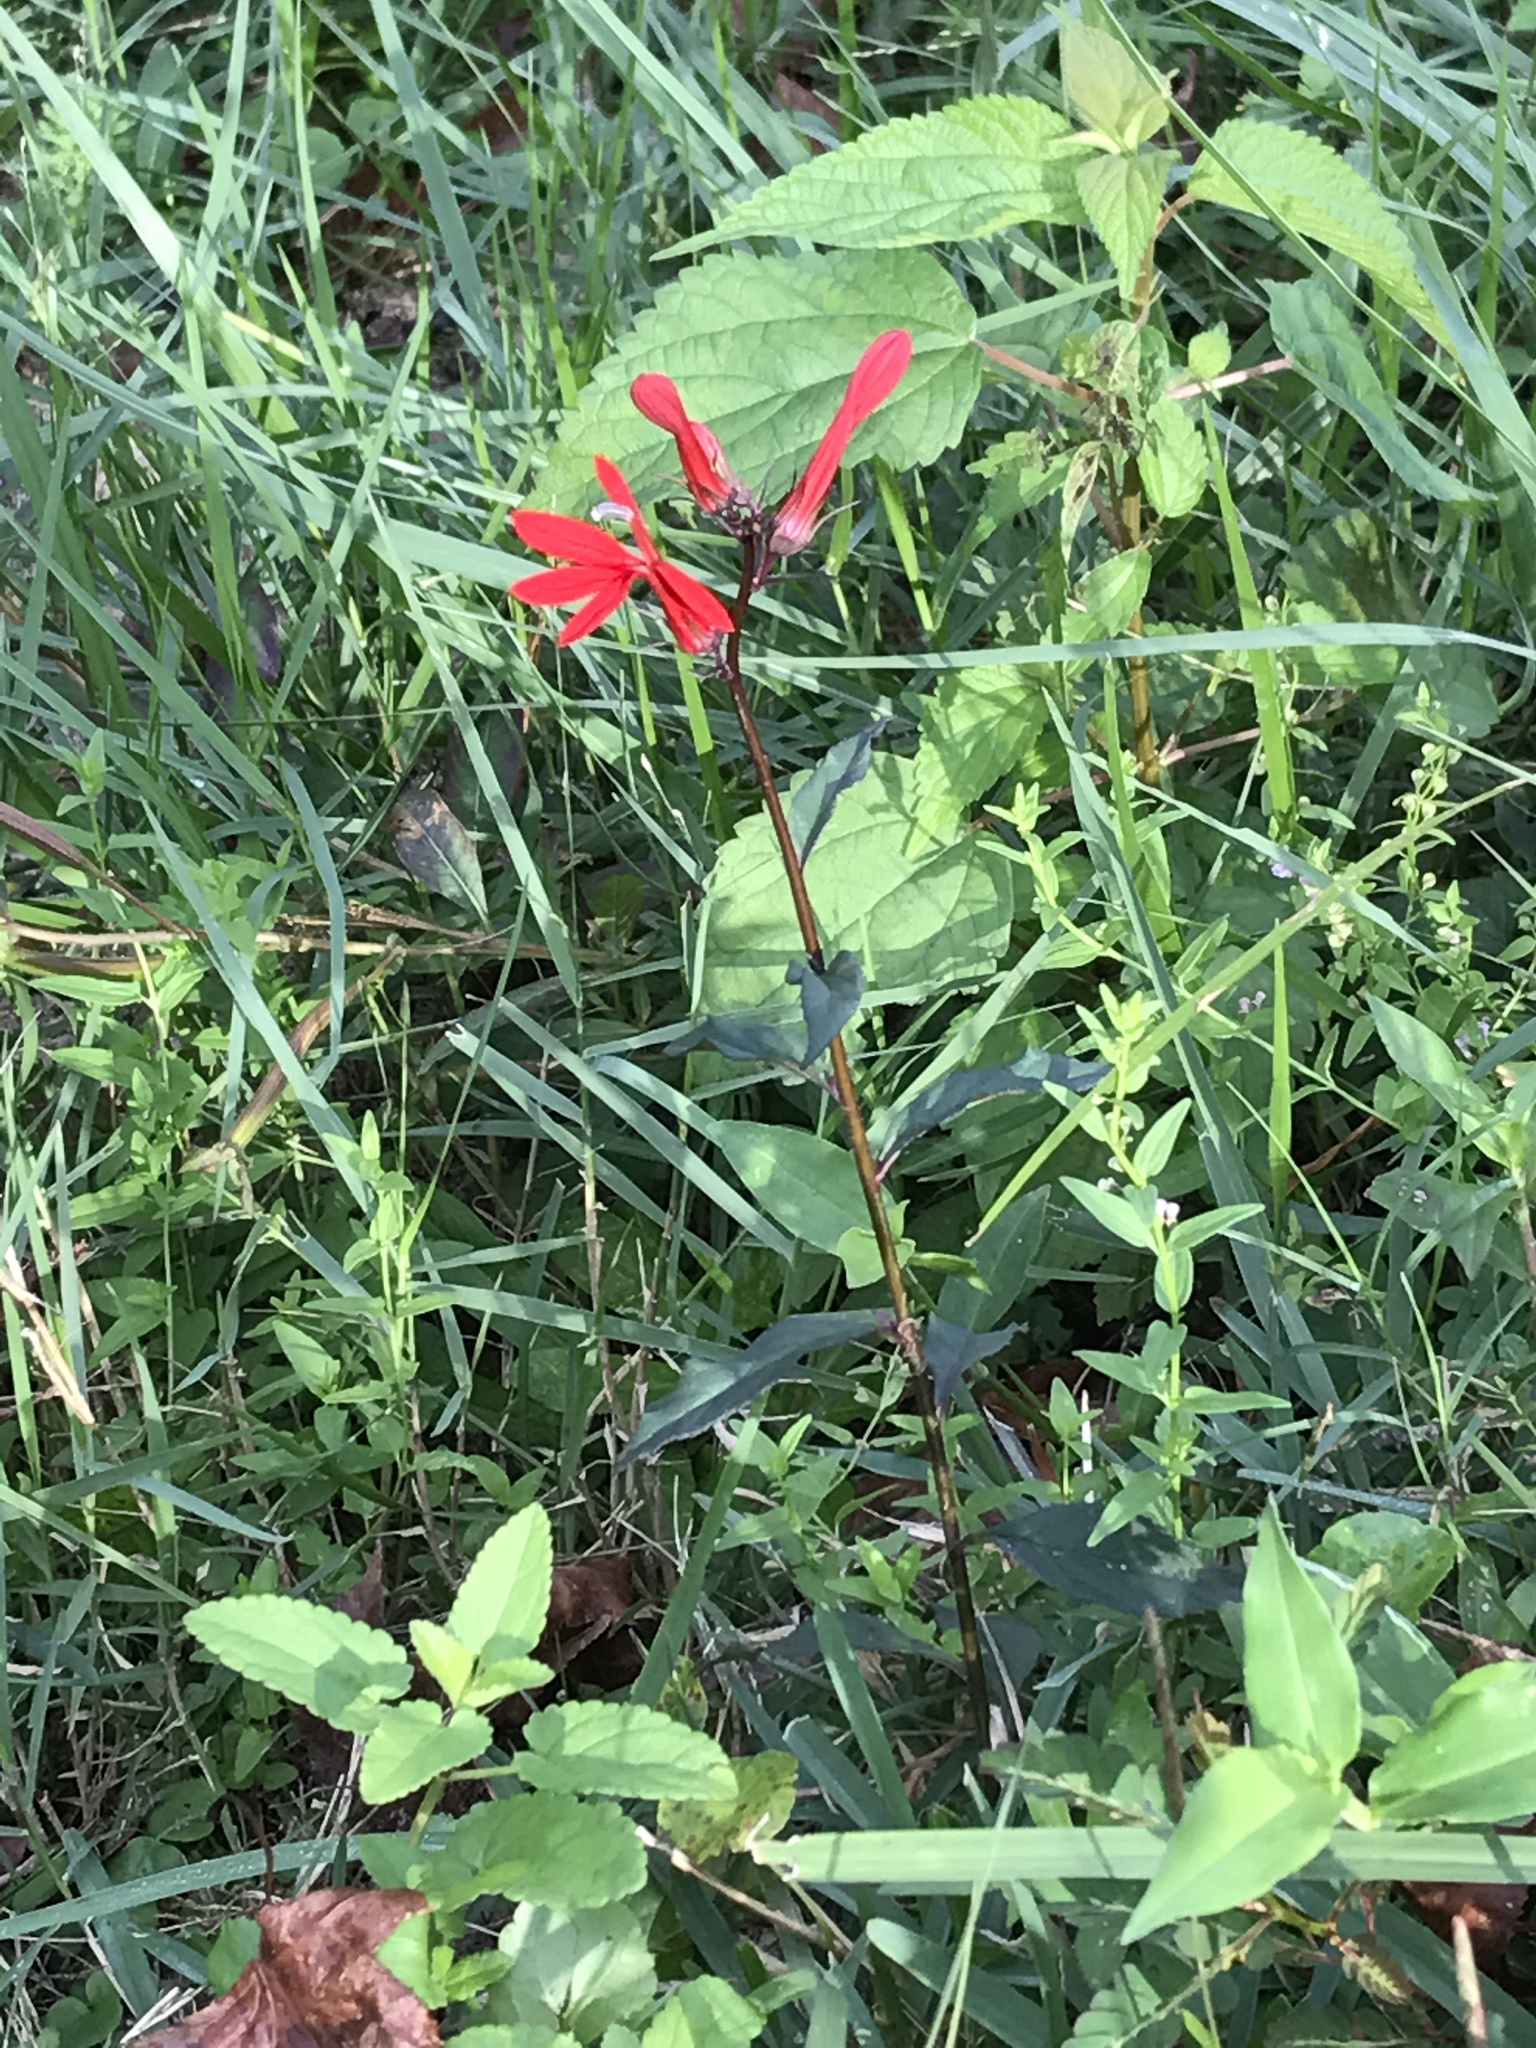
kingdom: Plantae
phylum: Tracheophyta
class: Magnoliopsida
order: Asterales
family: Campanulaceae
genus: Lobelia
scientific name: Lobelia cardinalis
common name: Cardinal flower
